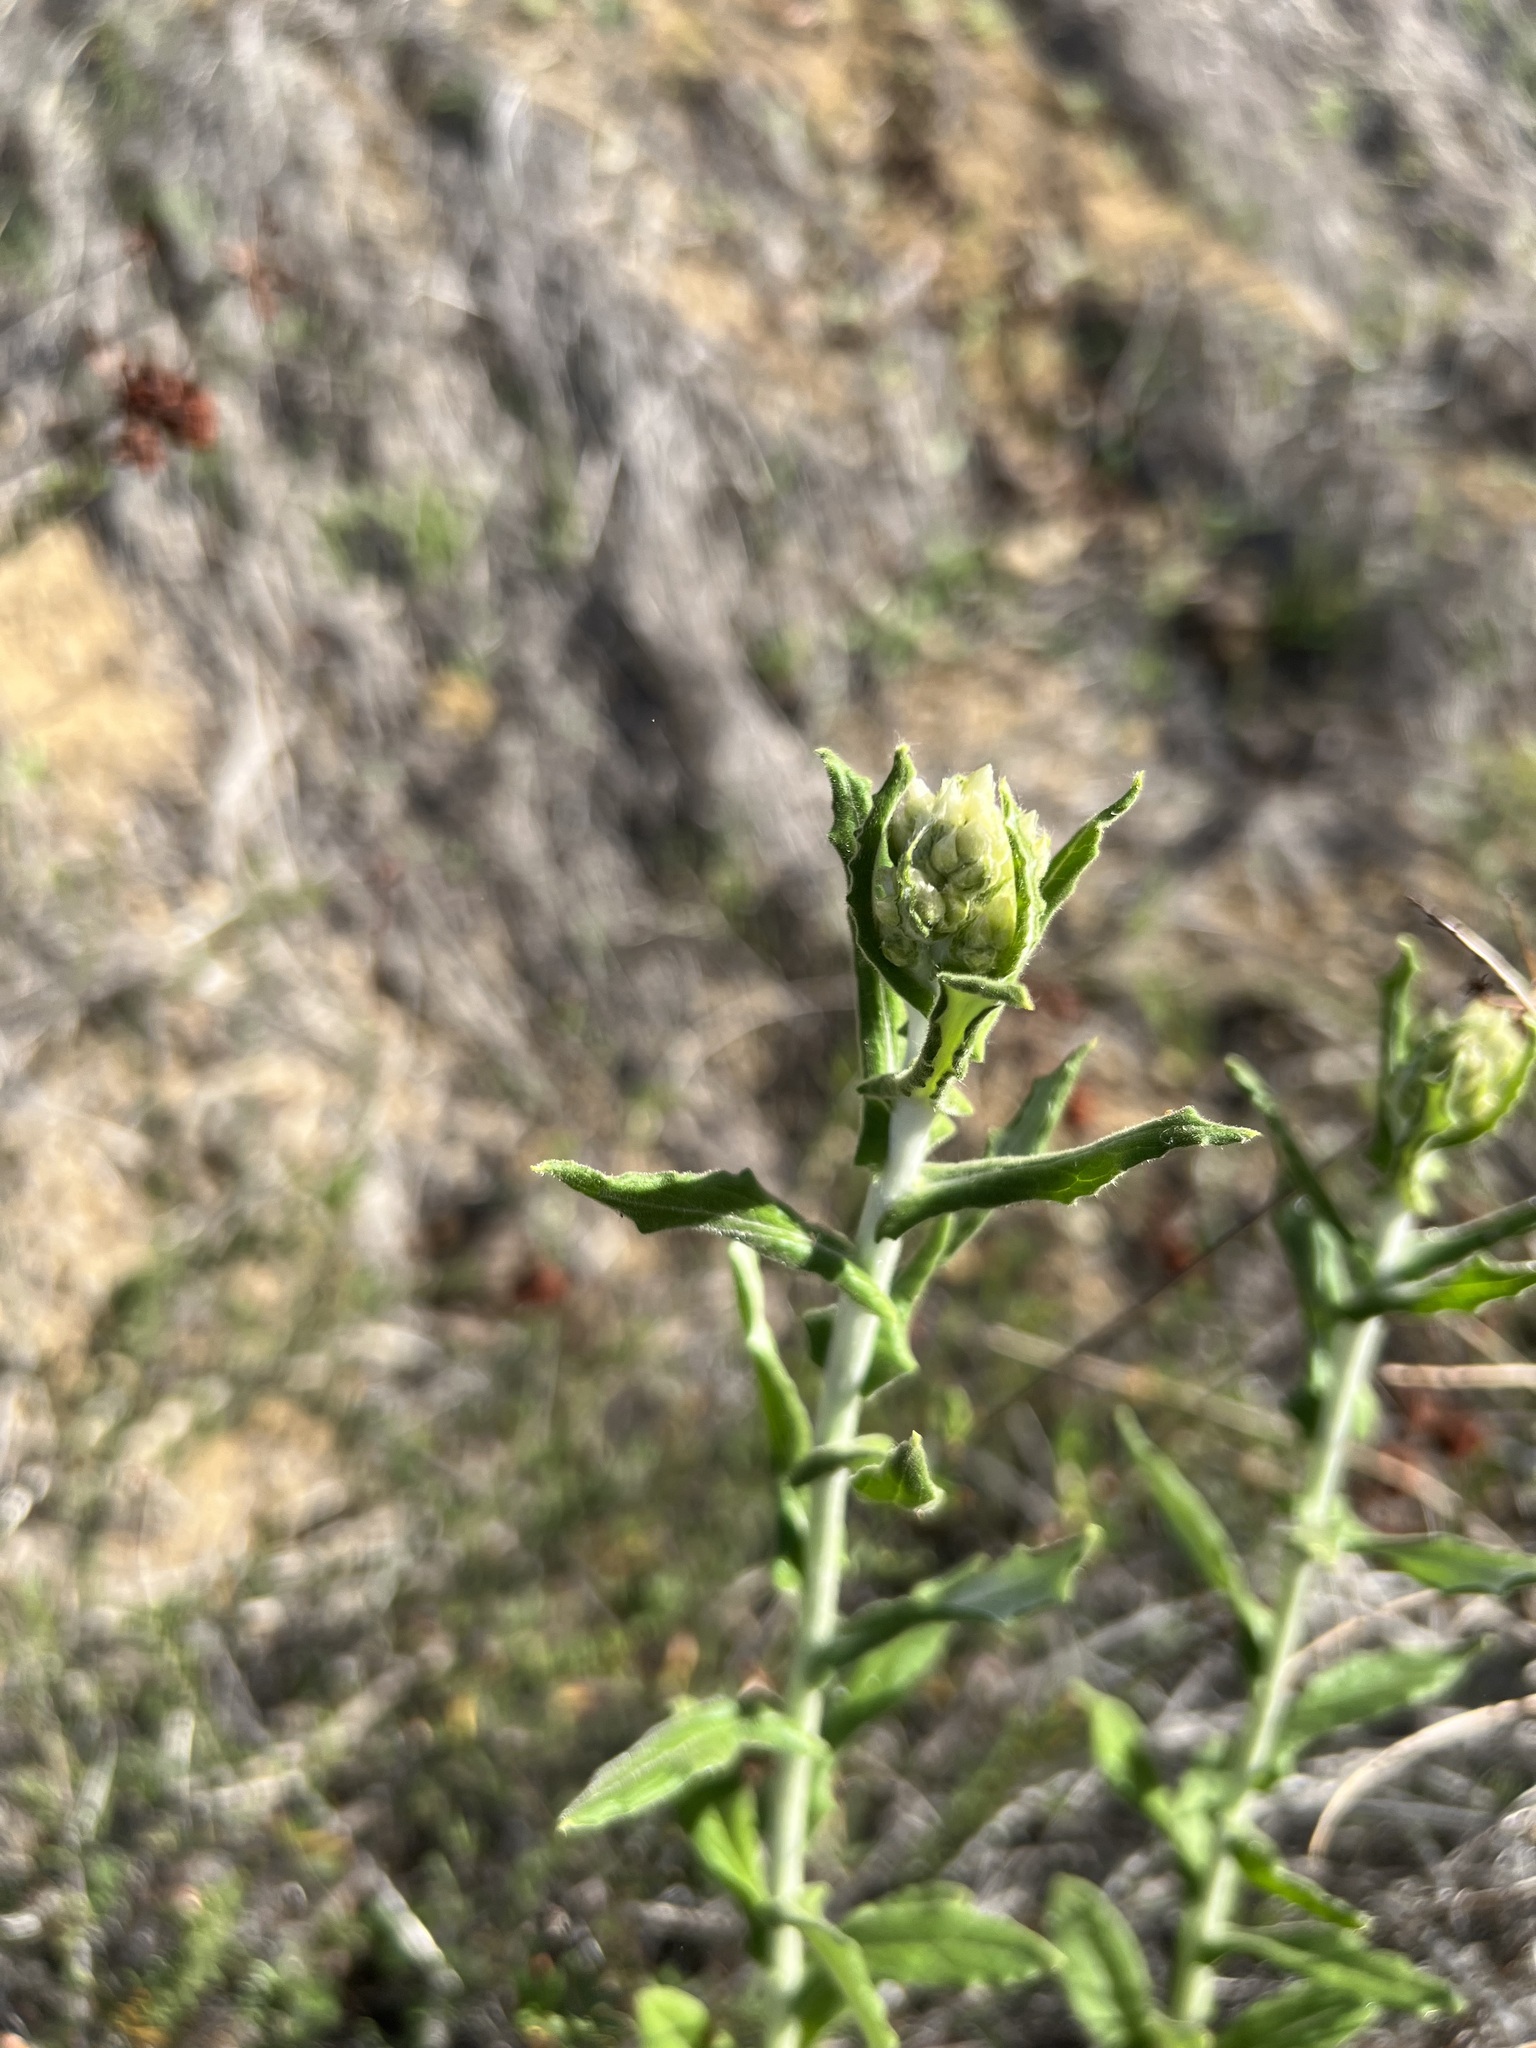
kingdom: Plantae
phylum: Tracheophyta
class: Magnoliopsida
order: Asterales
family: Asteraceae
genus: Pseudognaphalium
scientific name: Pseudognaphalium biolettii
